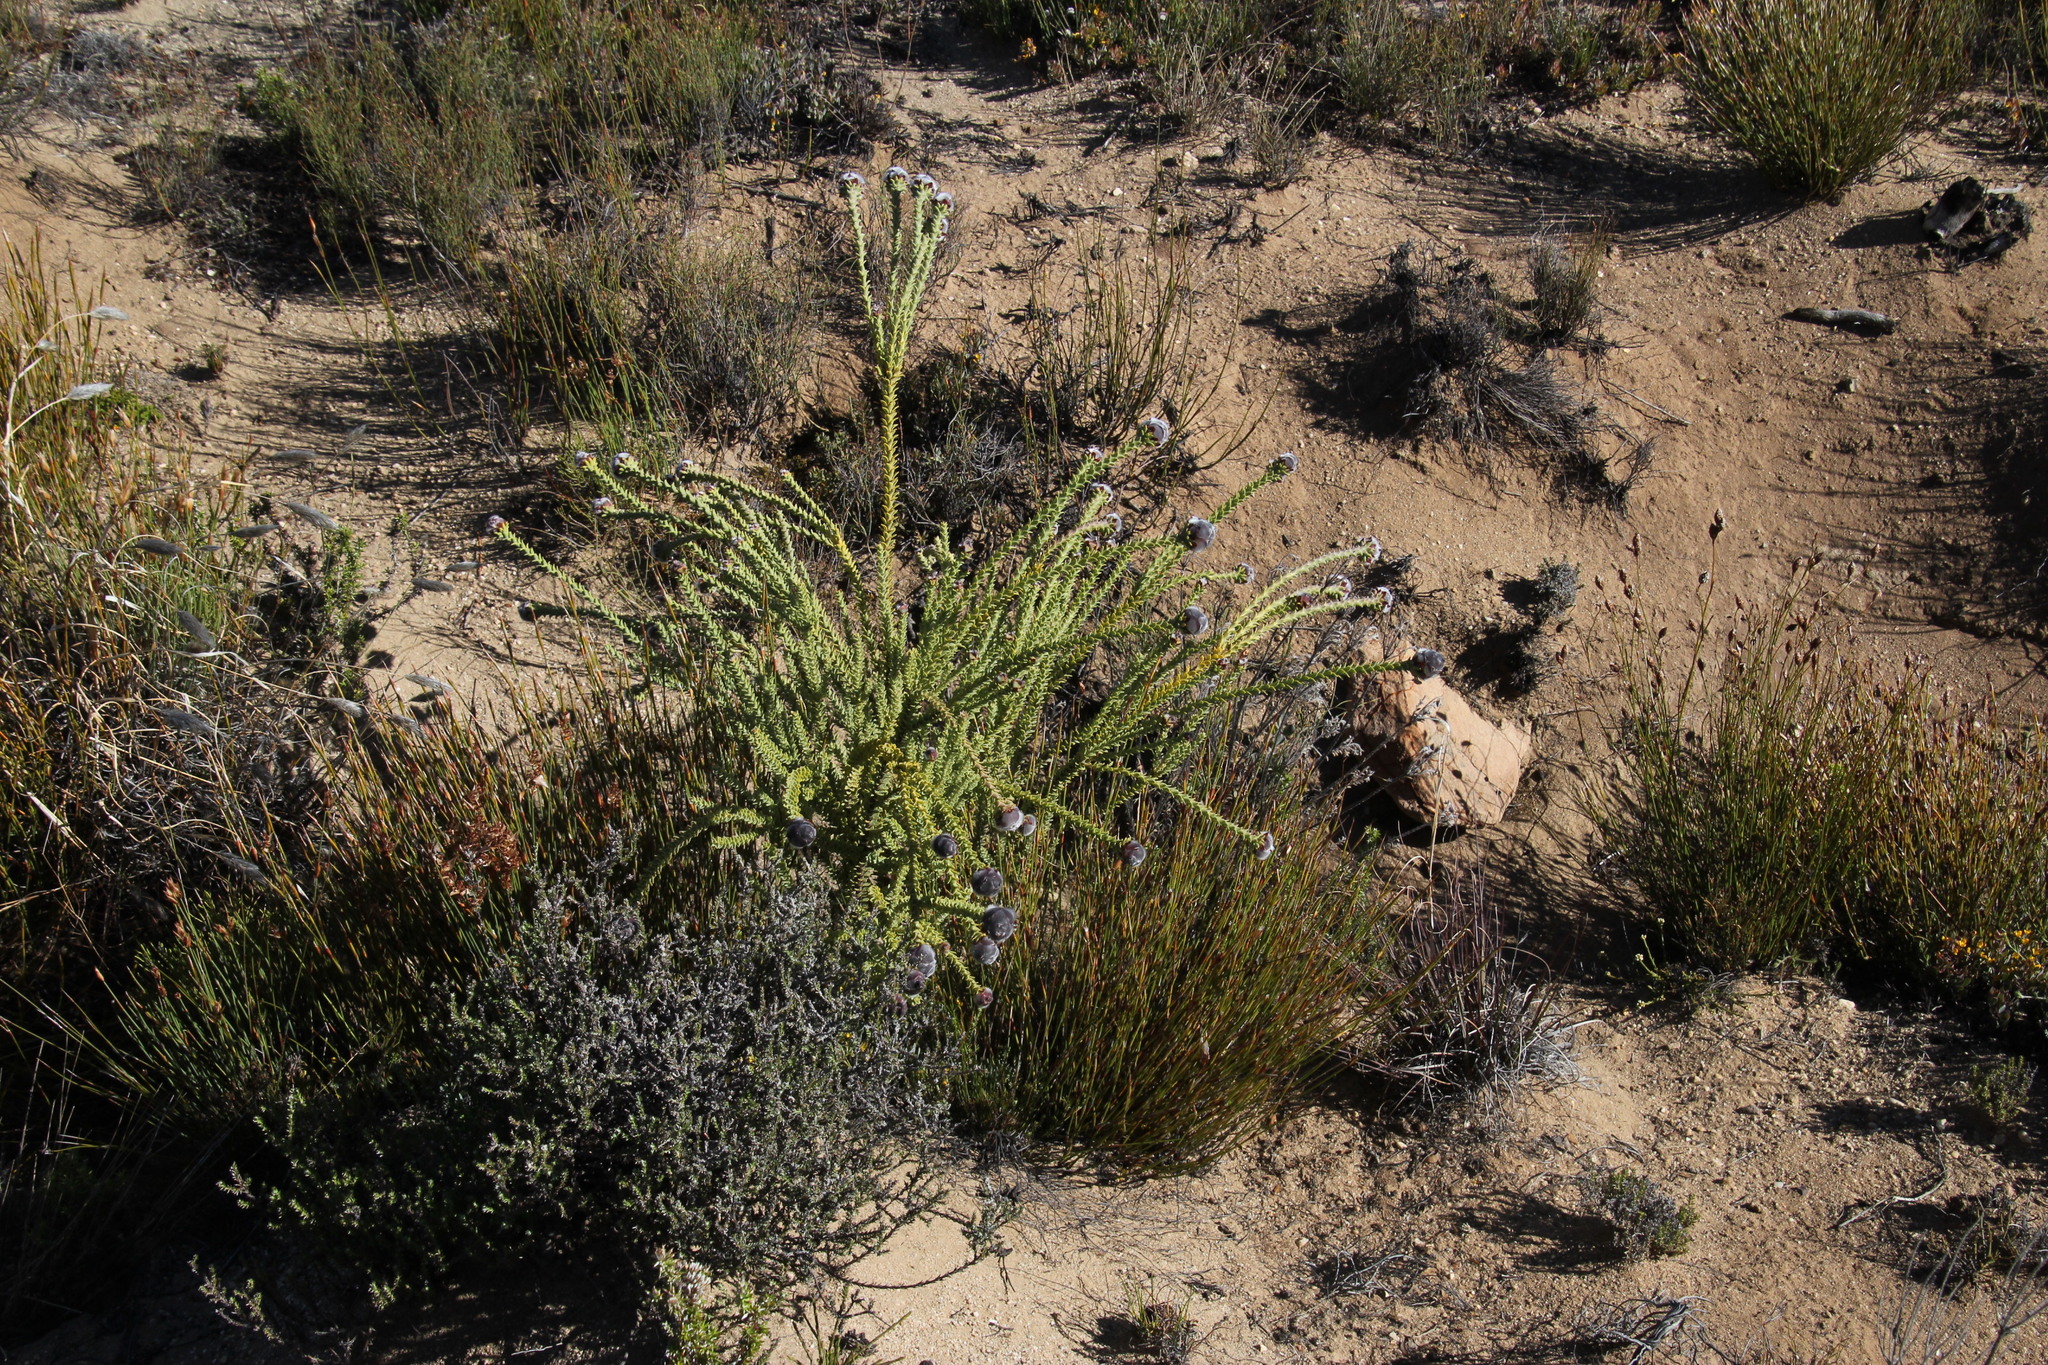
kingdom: Plantae
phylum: Tracheophyta
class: Magnoliopsida
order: Proteales
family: Proteaceae
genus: Leucadendron
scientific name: Leucadendron dubium
